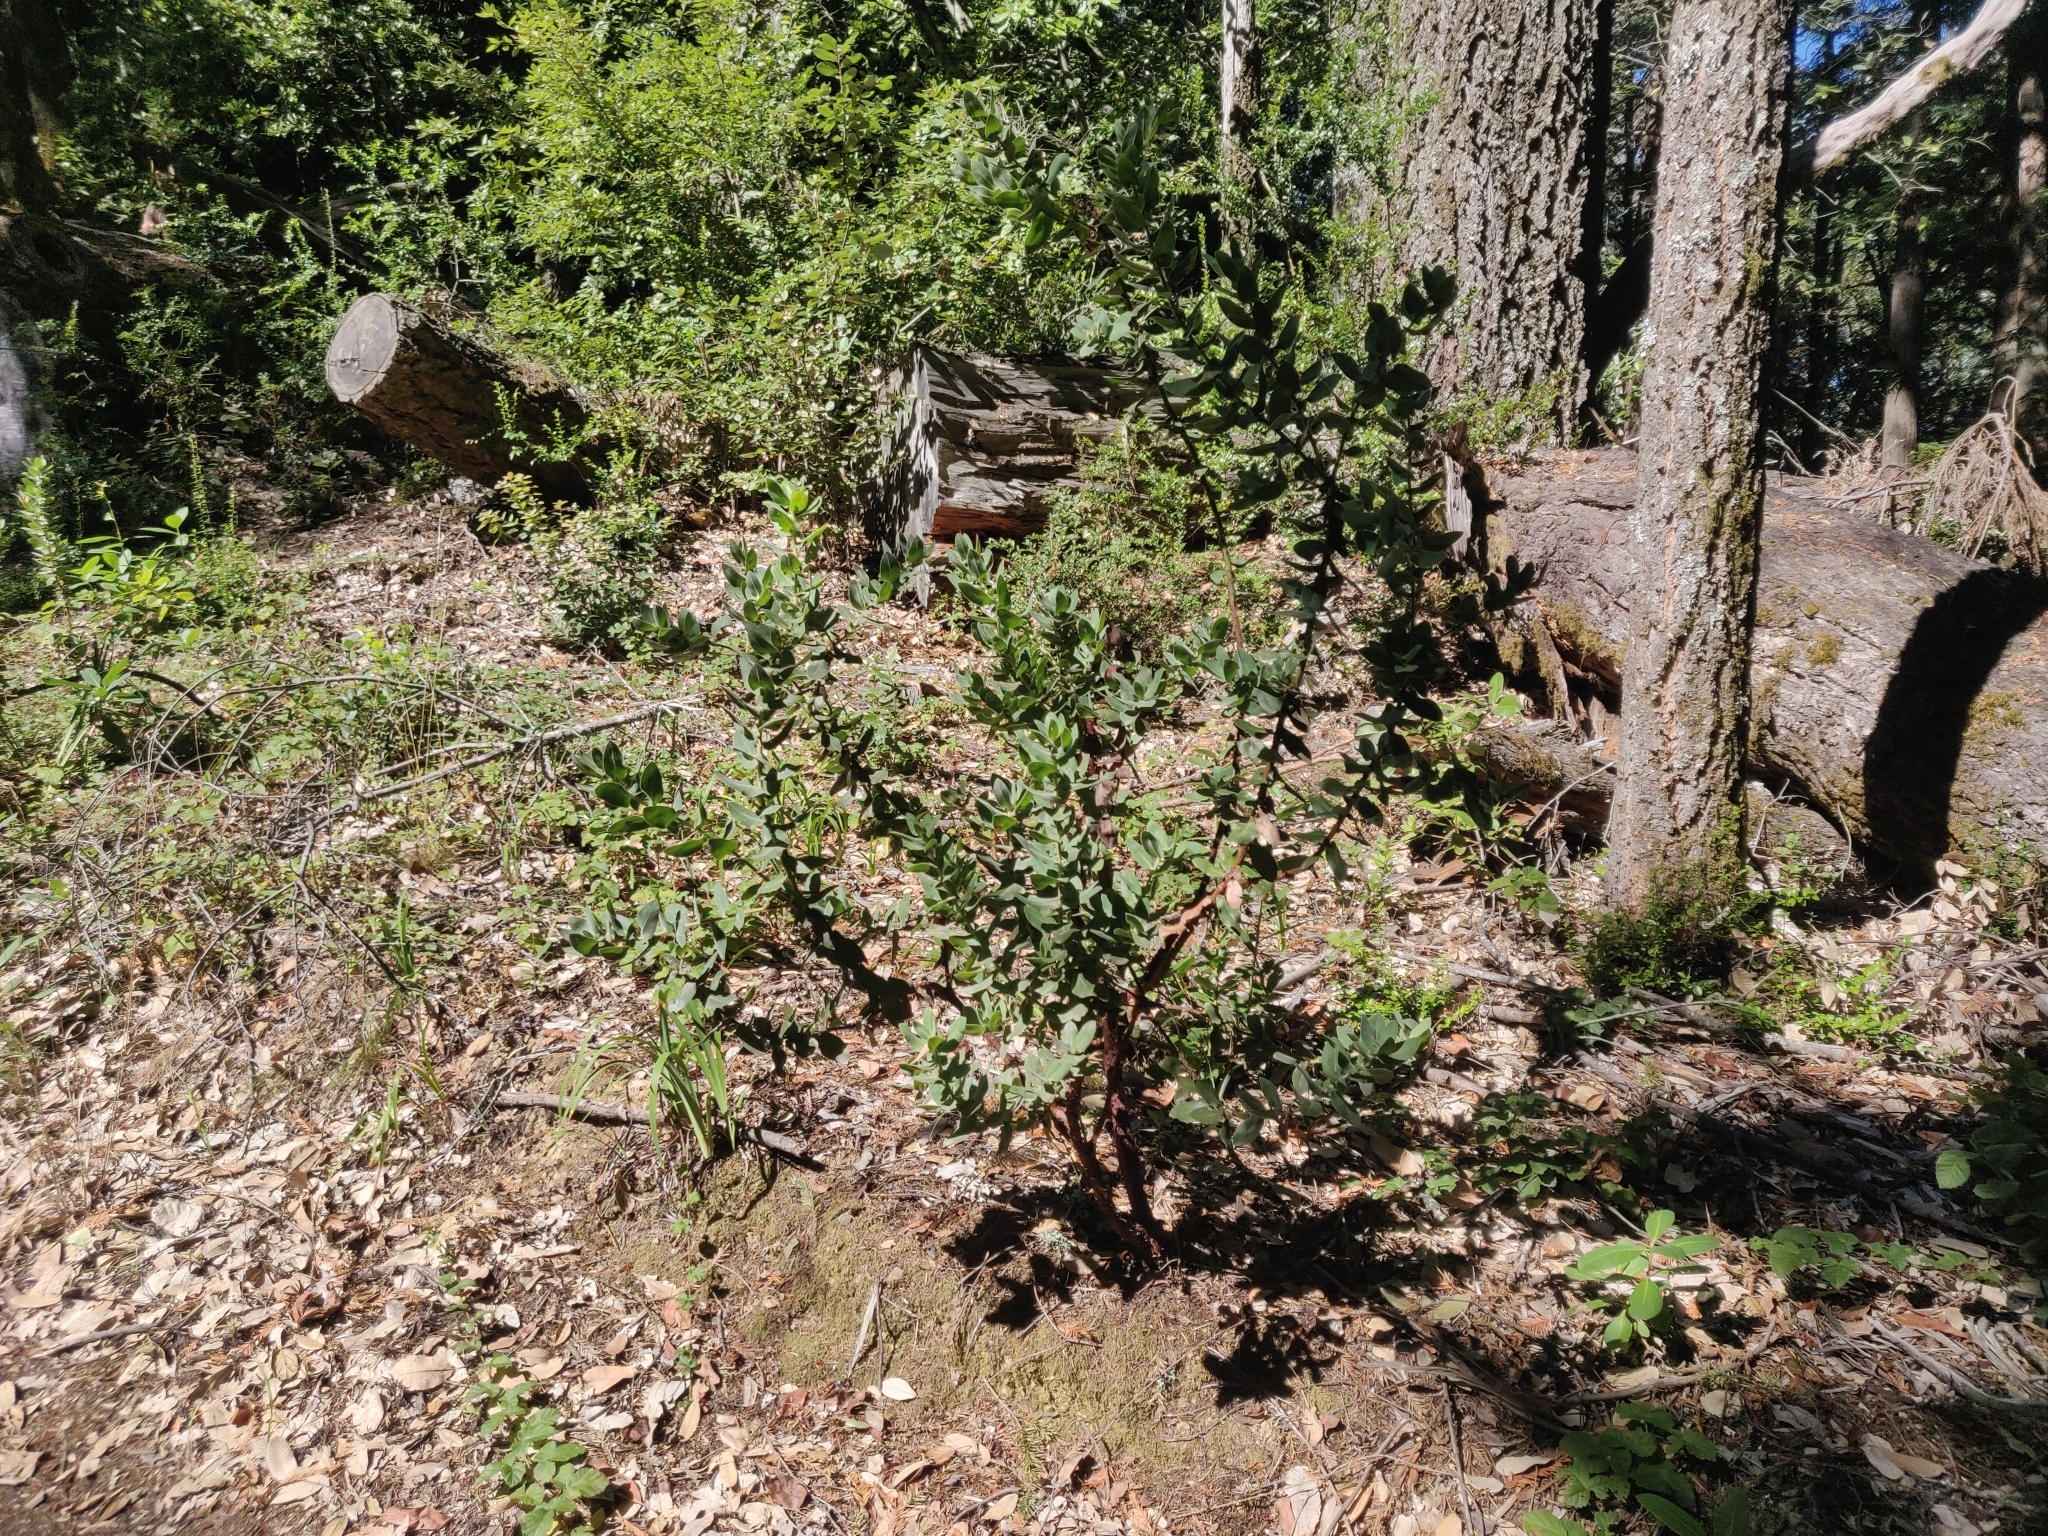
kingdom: Plantae
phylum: Tracheophyta
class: Magnoliopsida
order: Ericales
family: Ericaceae
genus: Arctostaphylos
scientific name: Arctostaphylos regismontana
